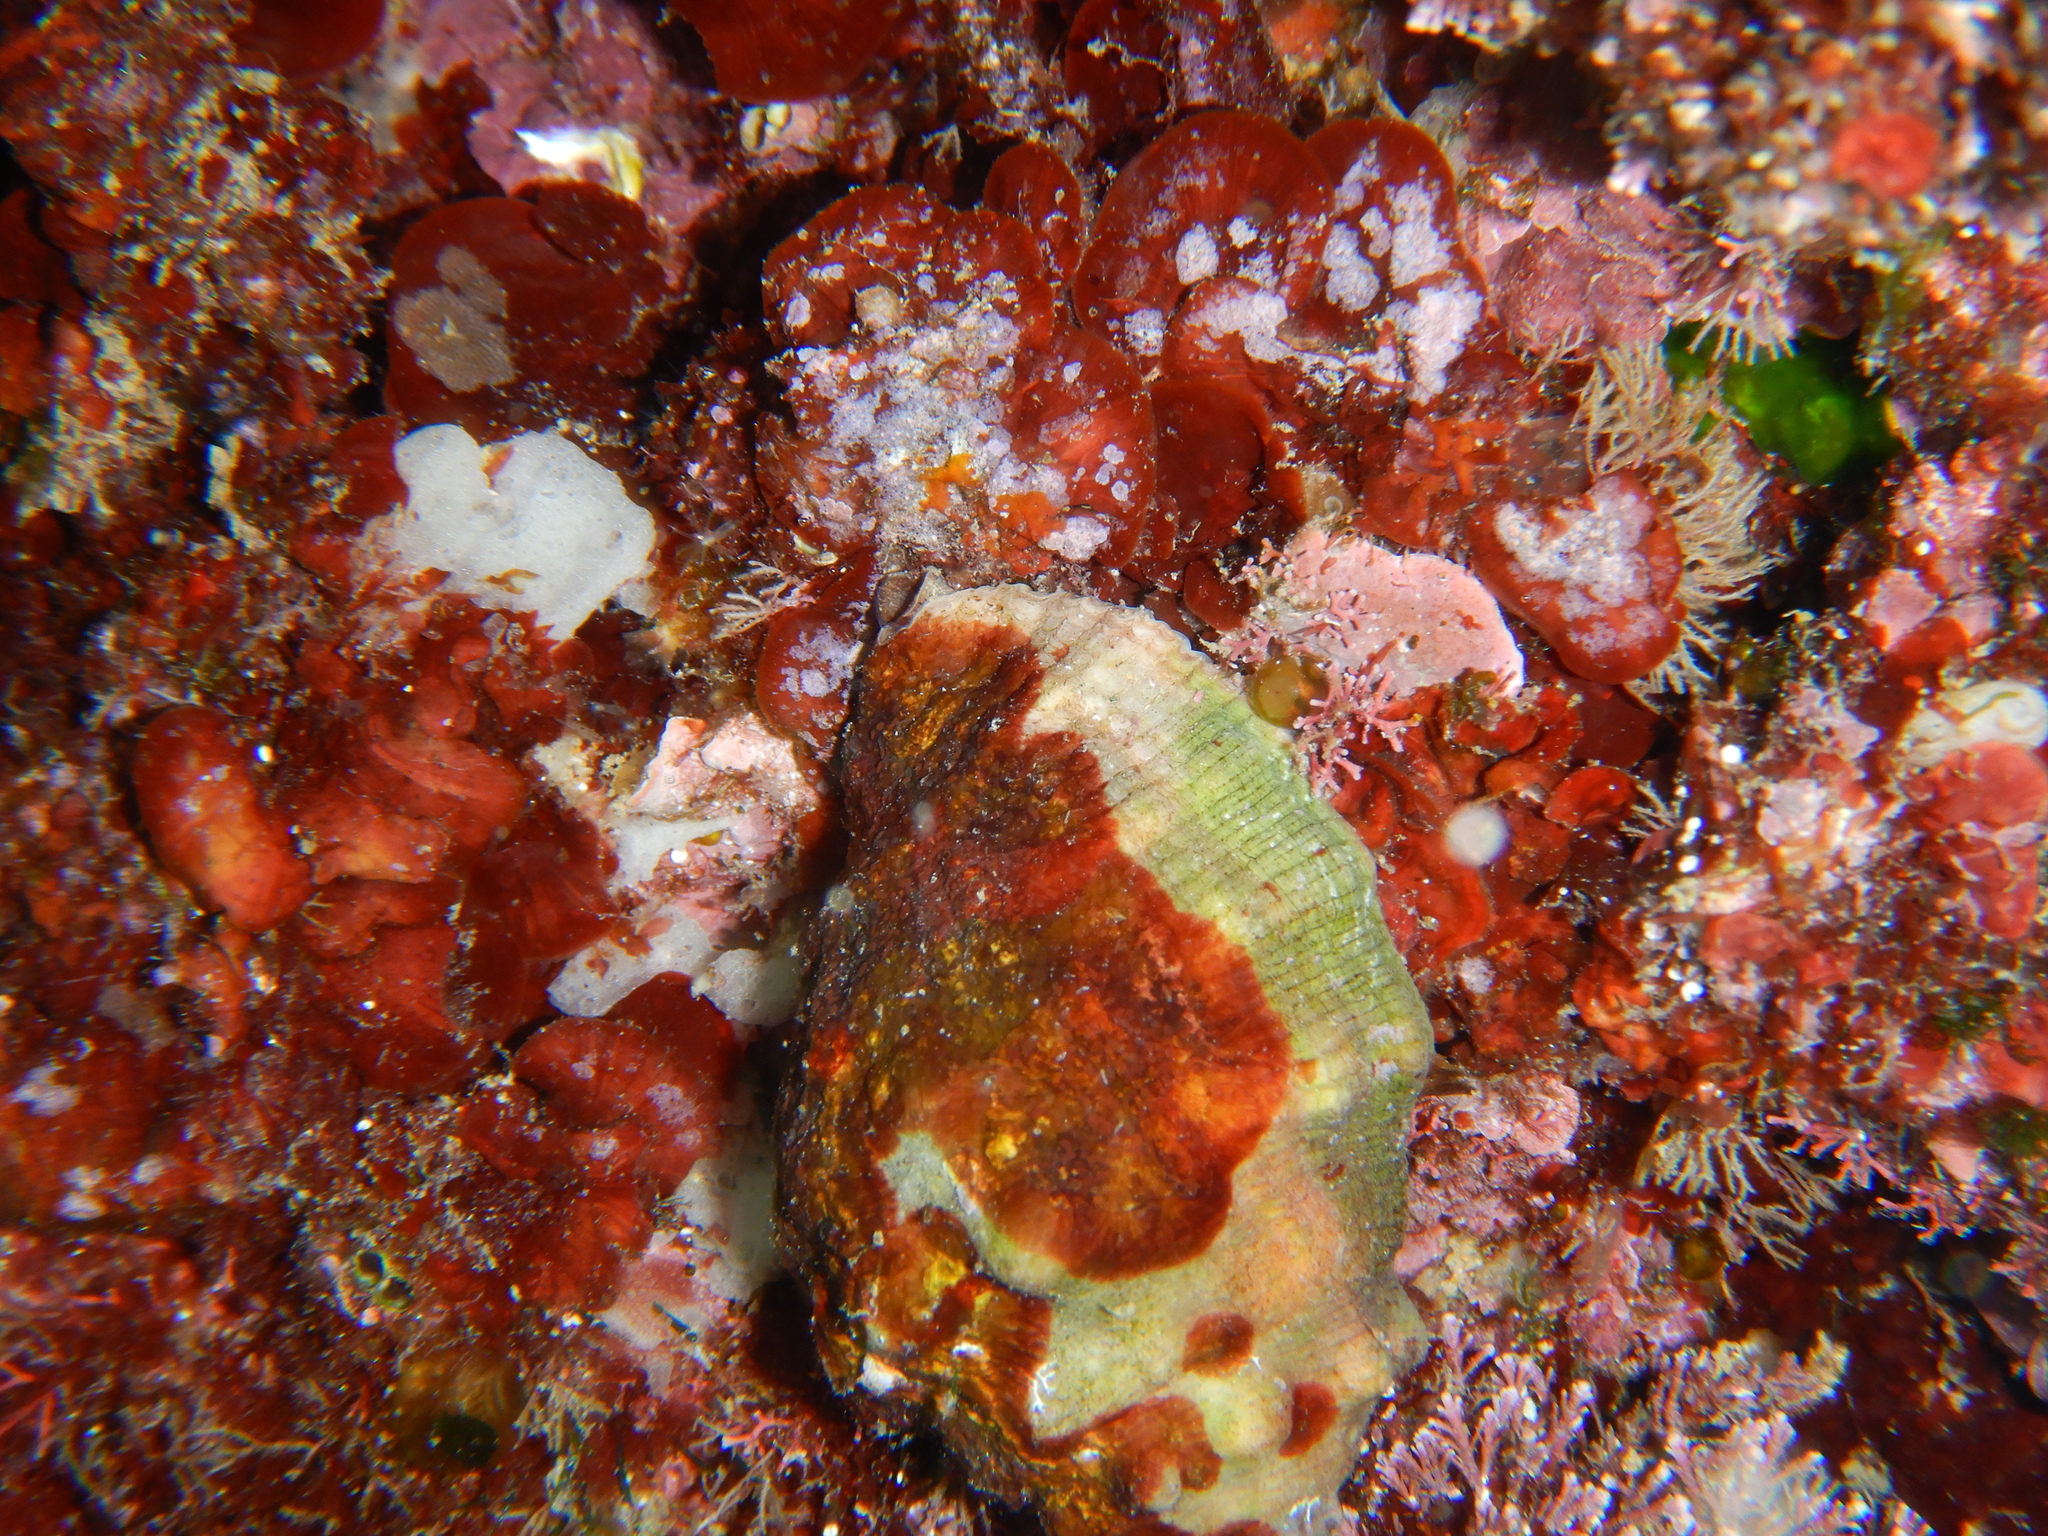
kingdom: Animalia
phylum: Mollusca
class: Gastropoda
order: Neogastropoda
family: Muricidae
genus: Stramonita
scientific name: Stramonita haemastoma
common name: Florida dog winkle
